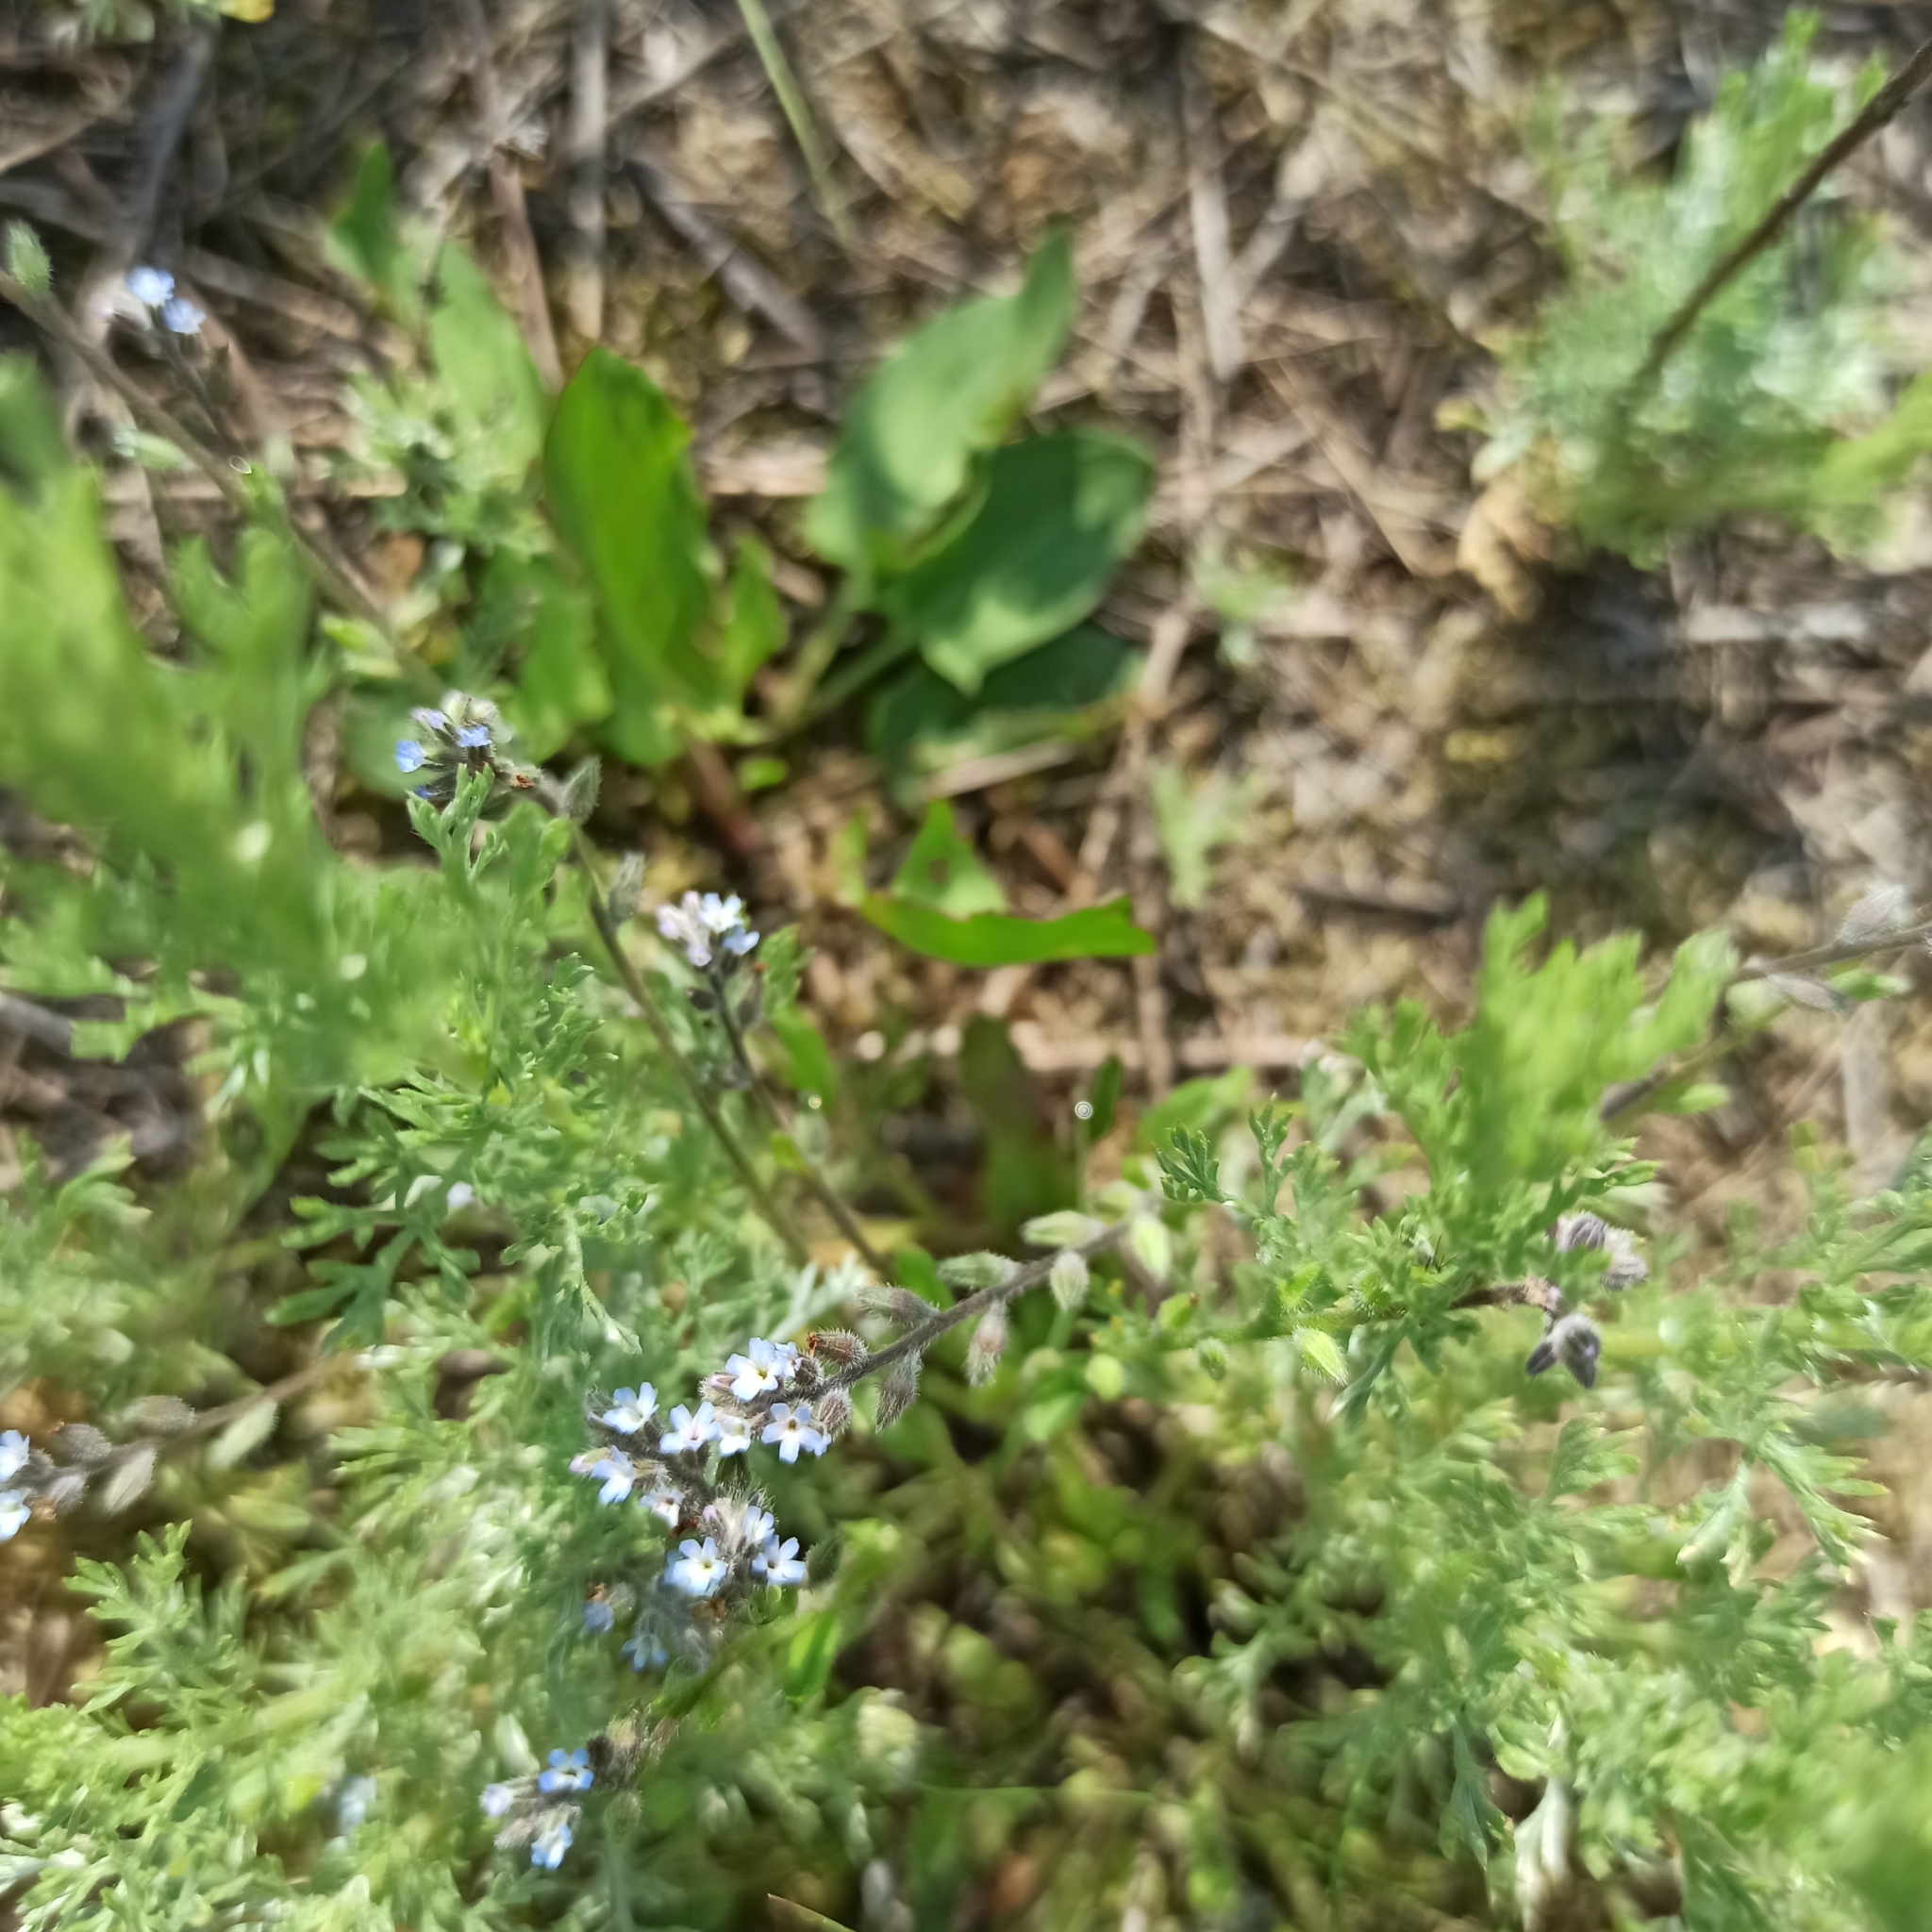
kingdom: Plantae
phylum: Tracheophyta
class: Magnoliopsida
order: Boraginales
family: Boraginaceae
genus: Myosotis
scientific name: Myosotis stricta
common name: Strict forget-me-not
